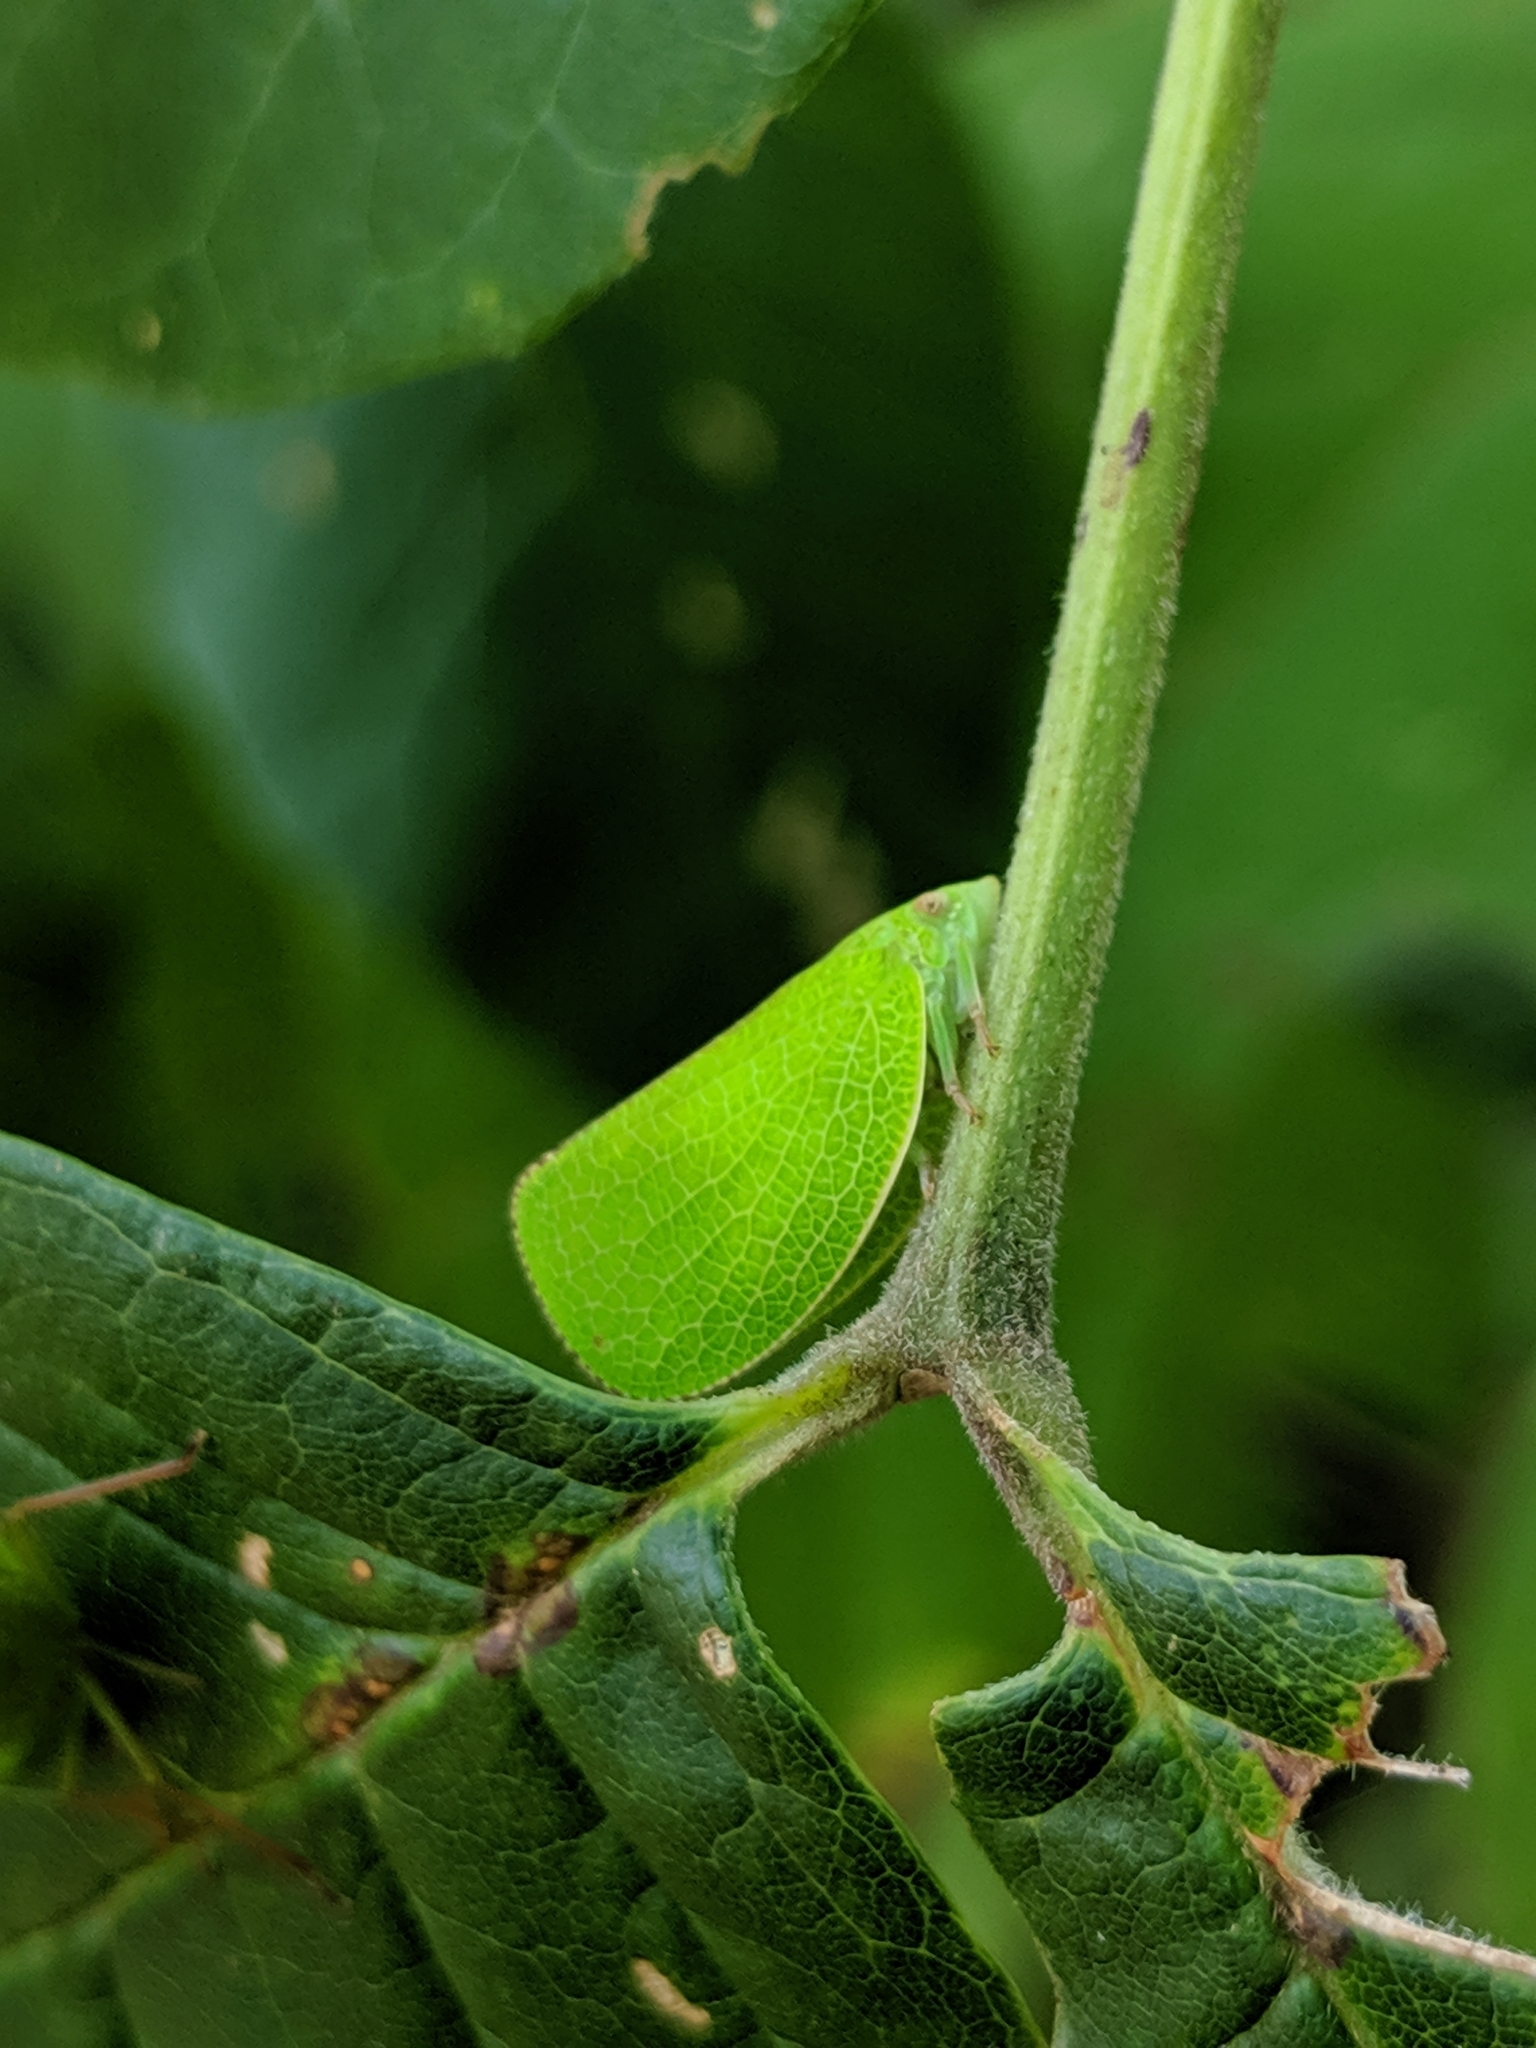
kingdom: Animalia
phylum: Arthropoda
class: Insecta
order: Hemiptera
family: Acanaloniidae
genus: Acanalonia
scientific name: Acanalonia conica
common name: Green cone-headed planthopper
